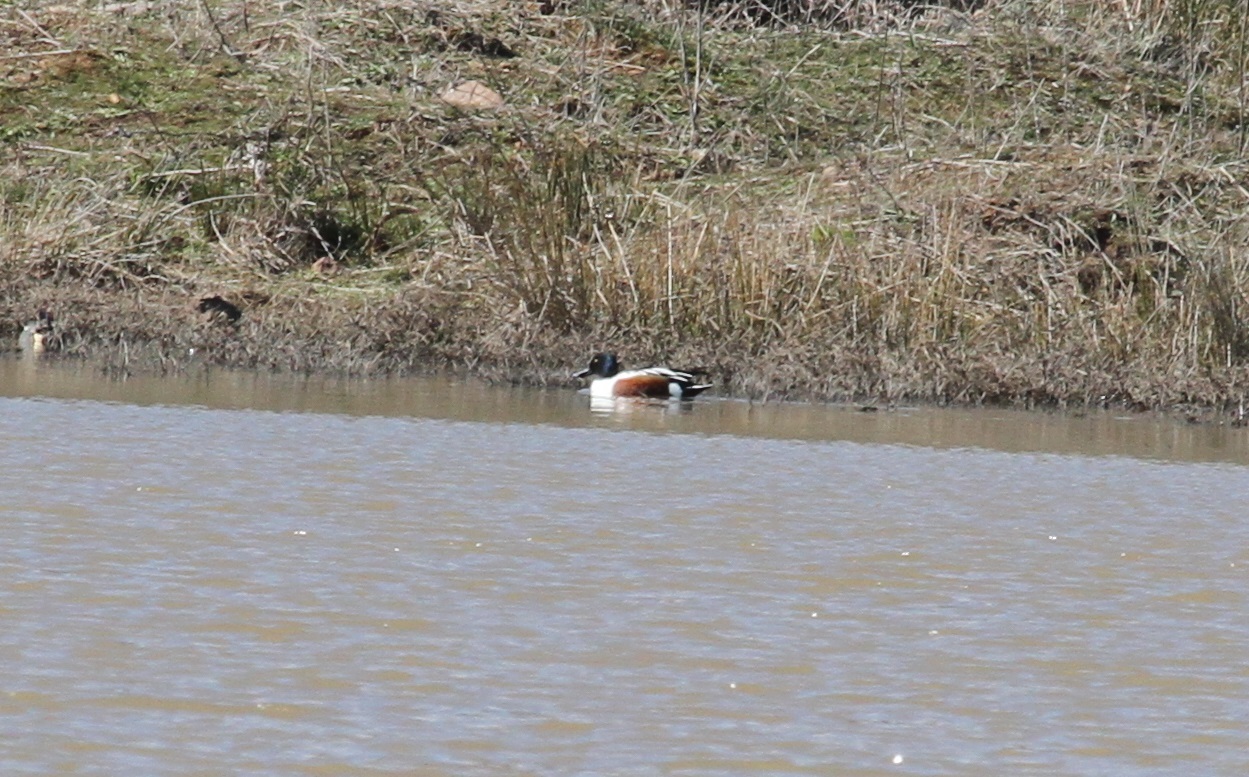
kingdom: Animalia
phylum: Chordata
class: Aves
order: Anseriformes
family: Anatidae
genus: Spatula
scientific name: Spatula clypeata
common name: Northern shoveler
